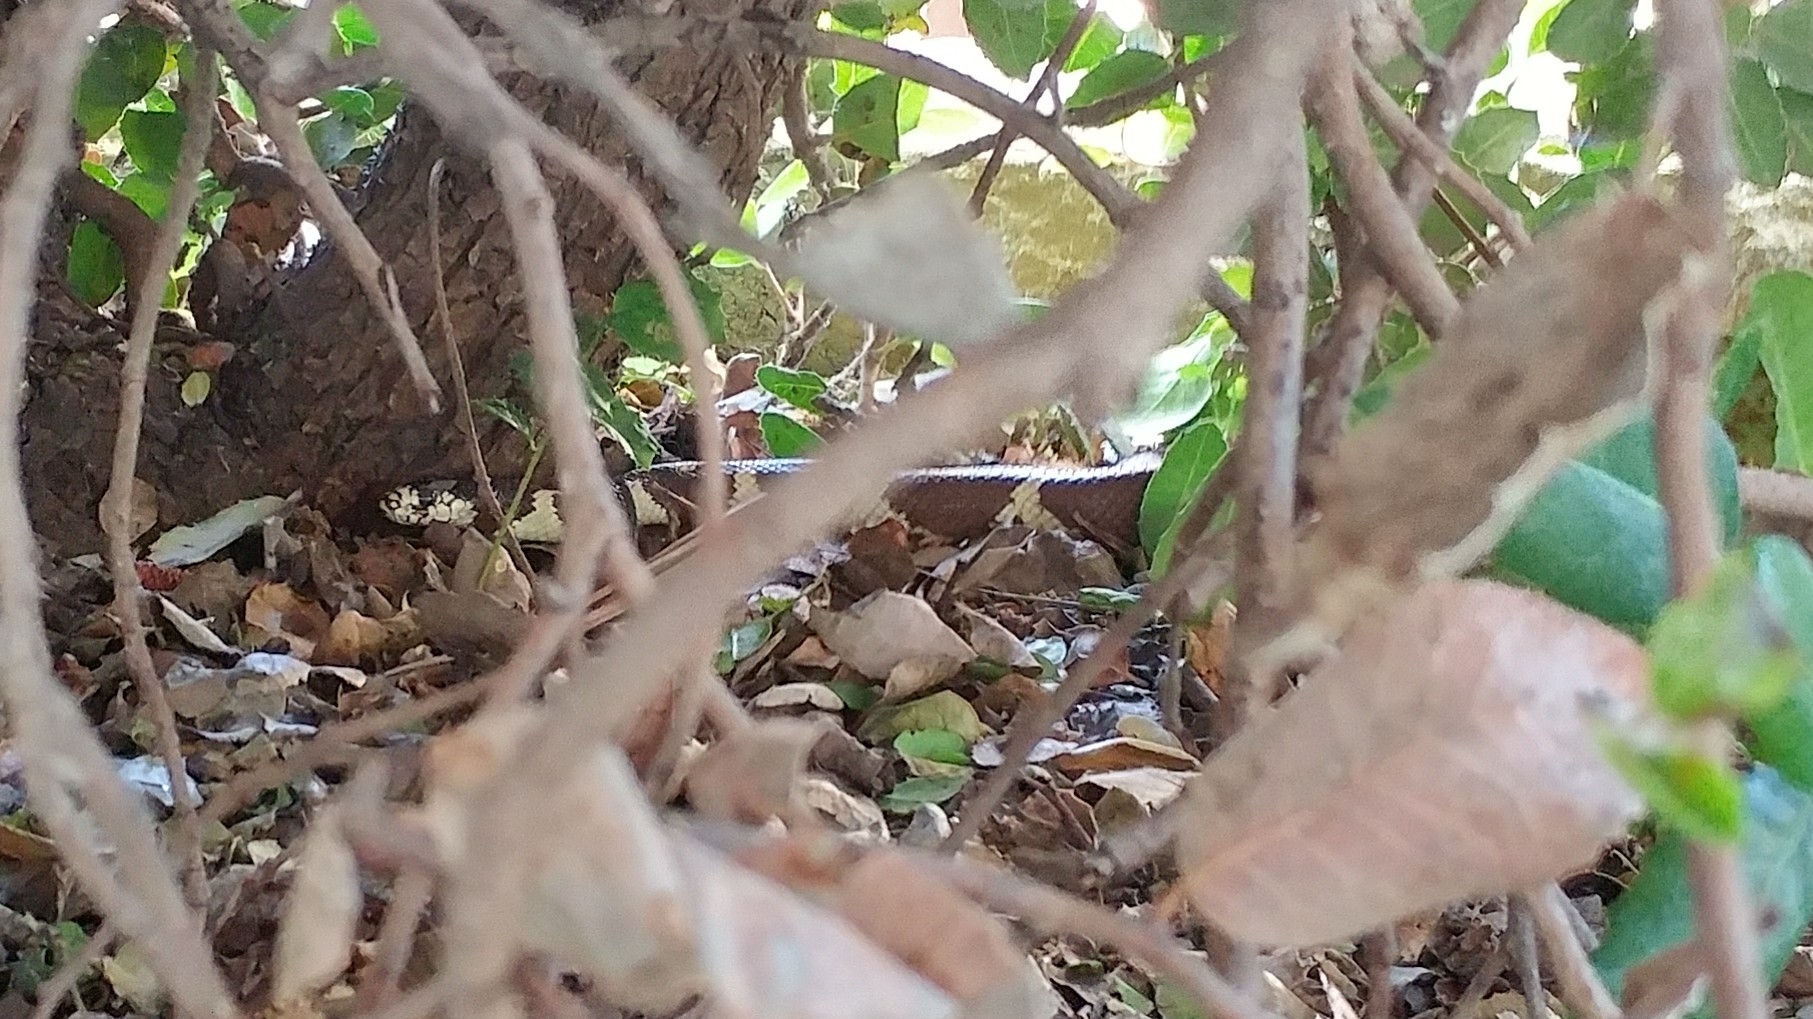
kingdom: Animalia
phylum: Chordata
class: Squamata
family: Colubridae
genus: Lampropeltis
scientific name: Lampropeltis californiae
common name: California kingsnake
